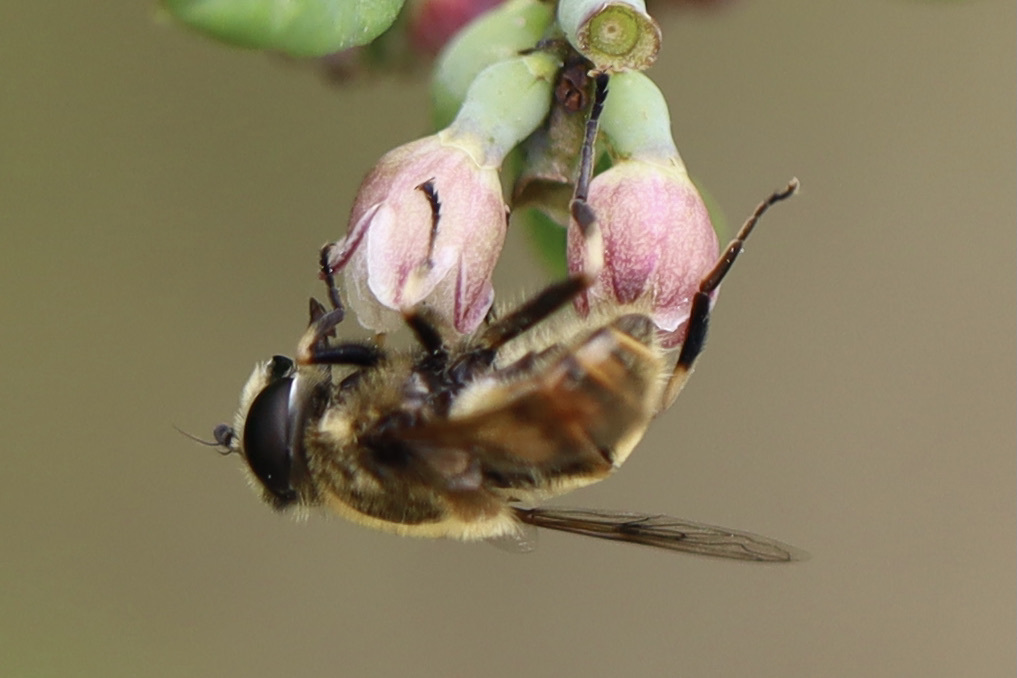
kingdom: Animalia
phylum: Arthropoda
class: Insecta
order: Diptera
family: Syrphidae
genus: Eristalis
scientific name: Eristalis anthophorina
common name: Orange-spotted drone fly
